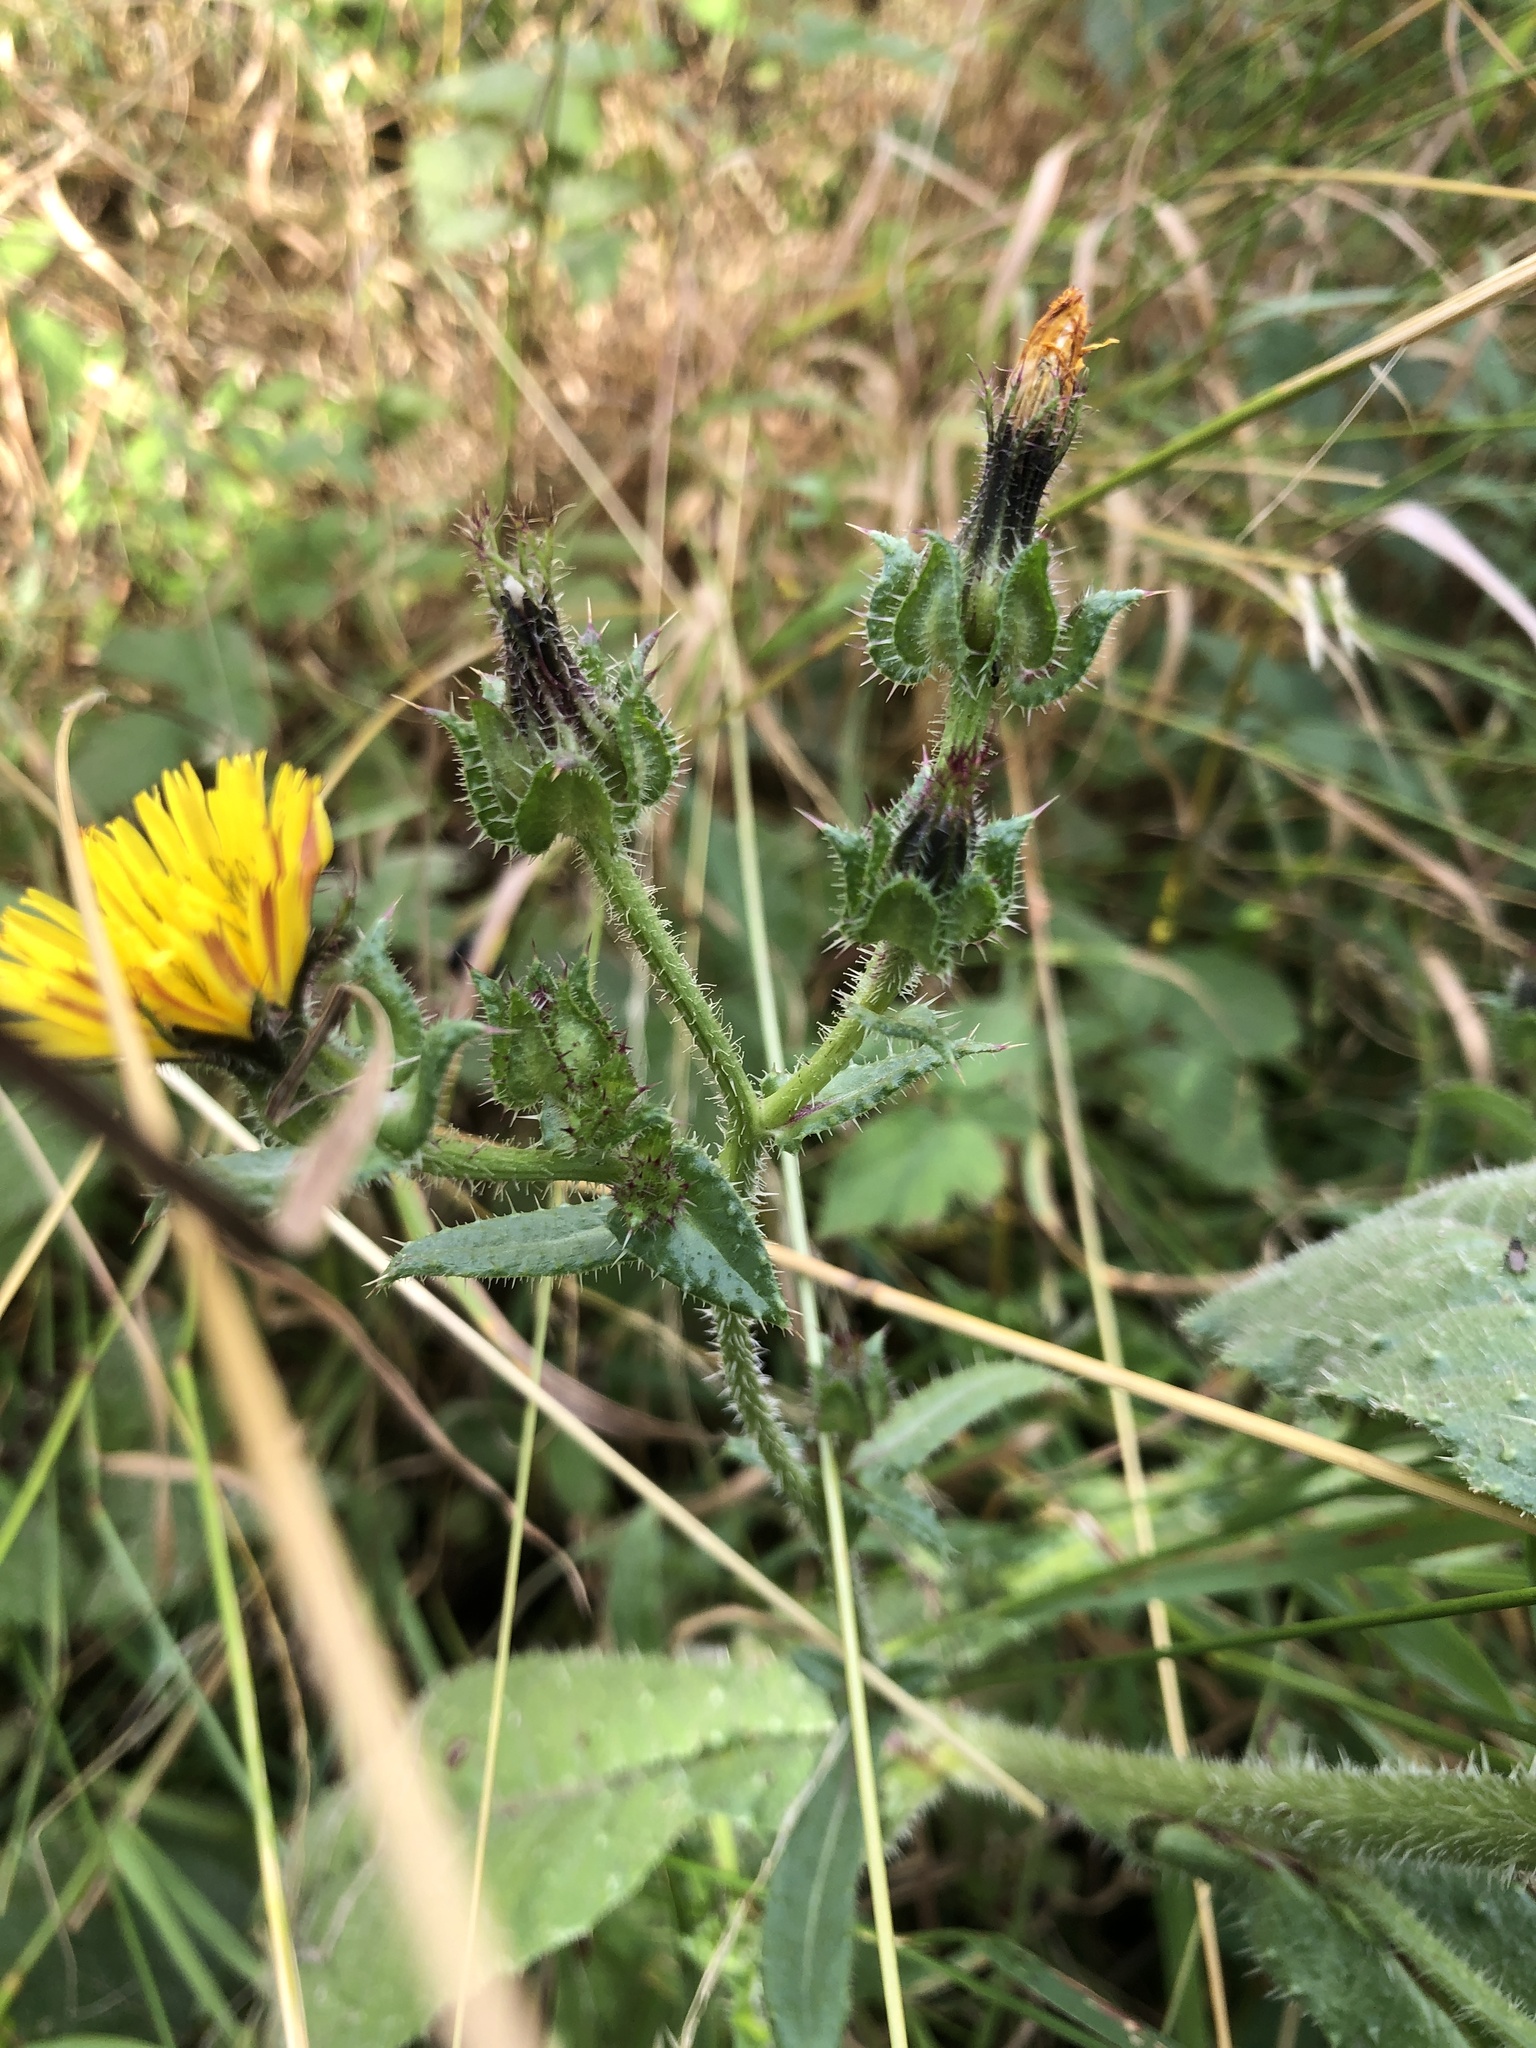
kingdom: Plantae
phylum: Tracheophyta
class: Magnoliopsida
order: Asterales
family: Asteraceae
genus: Helminthotheca
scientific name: Helminthotheca echioides
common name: Ox-tongue
